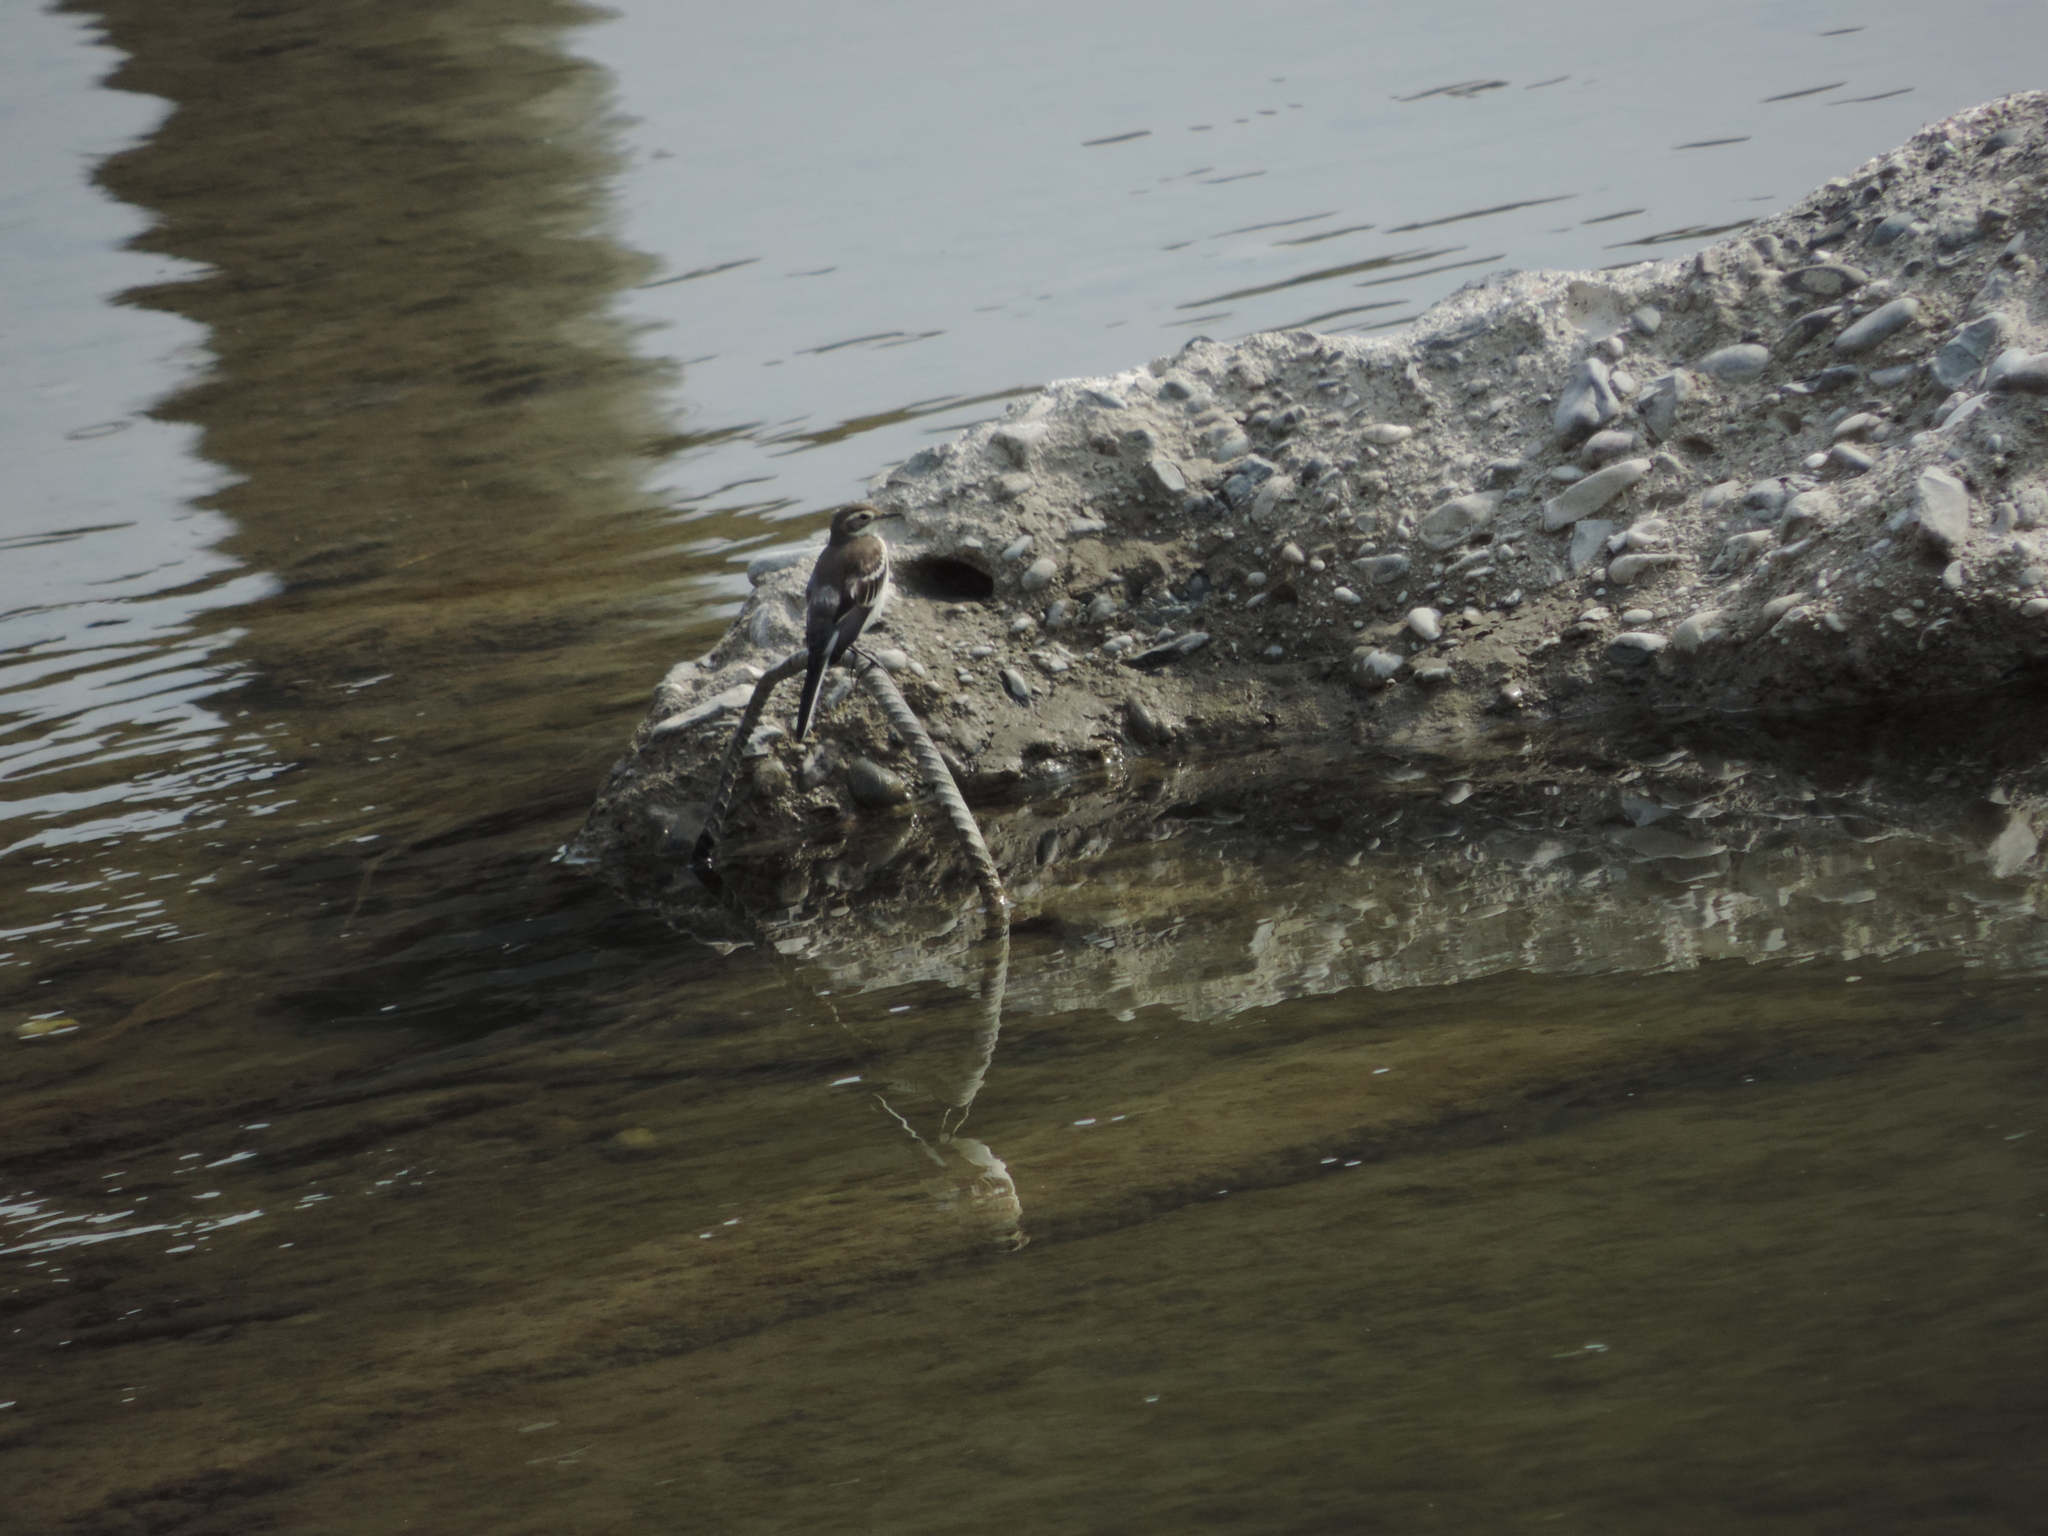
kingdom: Animalia
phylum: Chordata
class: Aves
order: Passeriformes
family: Motacillidae
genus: Motacilla
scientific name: Motacilla alba
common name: White wagtail
